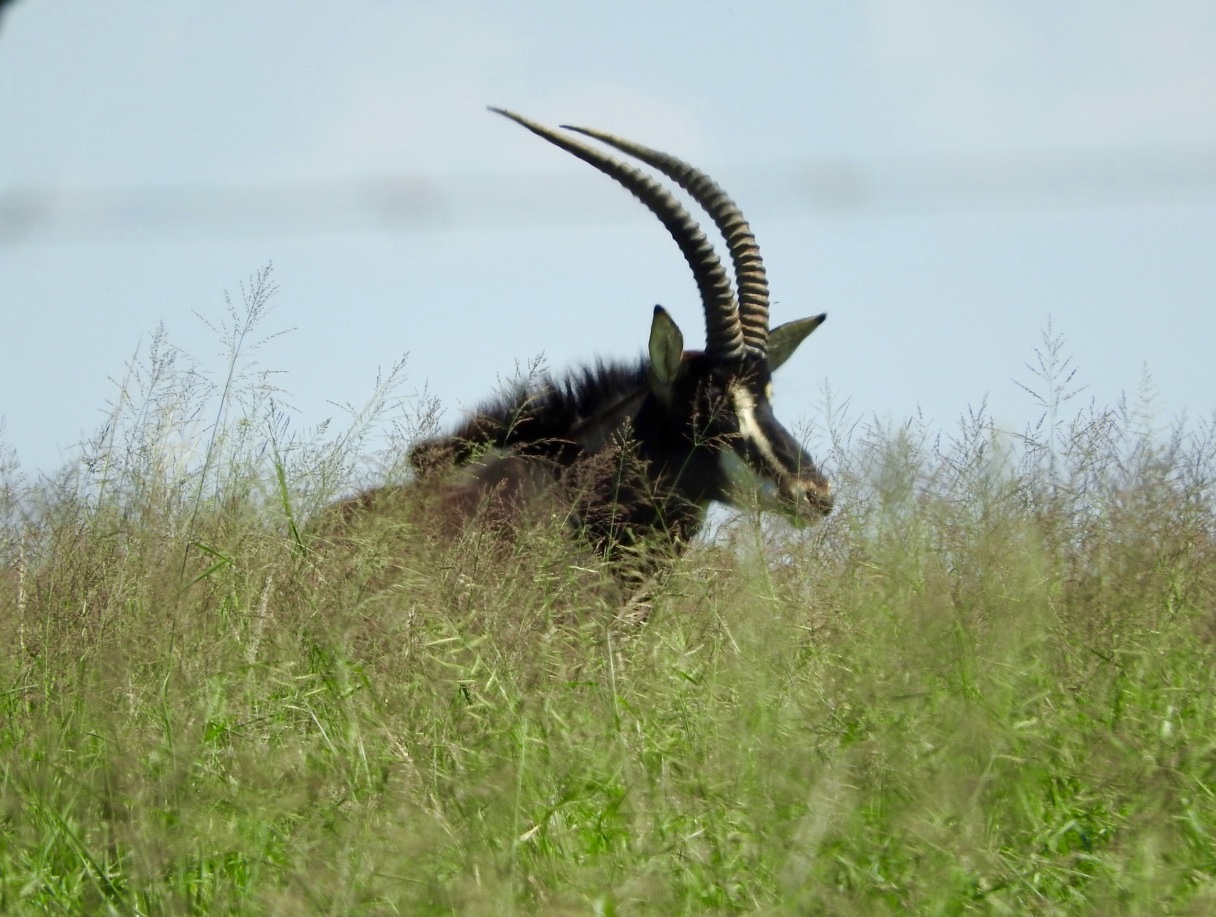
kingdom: Animalia
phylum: Chordata
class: Mammalia
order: Artiodactyla
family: Bovidae
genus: Hippotragus
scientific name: Hippotragus niger
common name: Sable antelope
